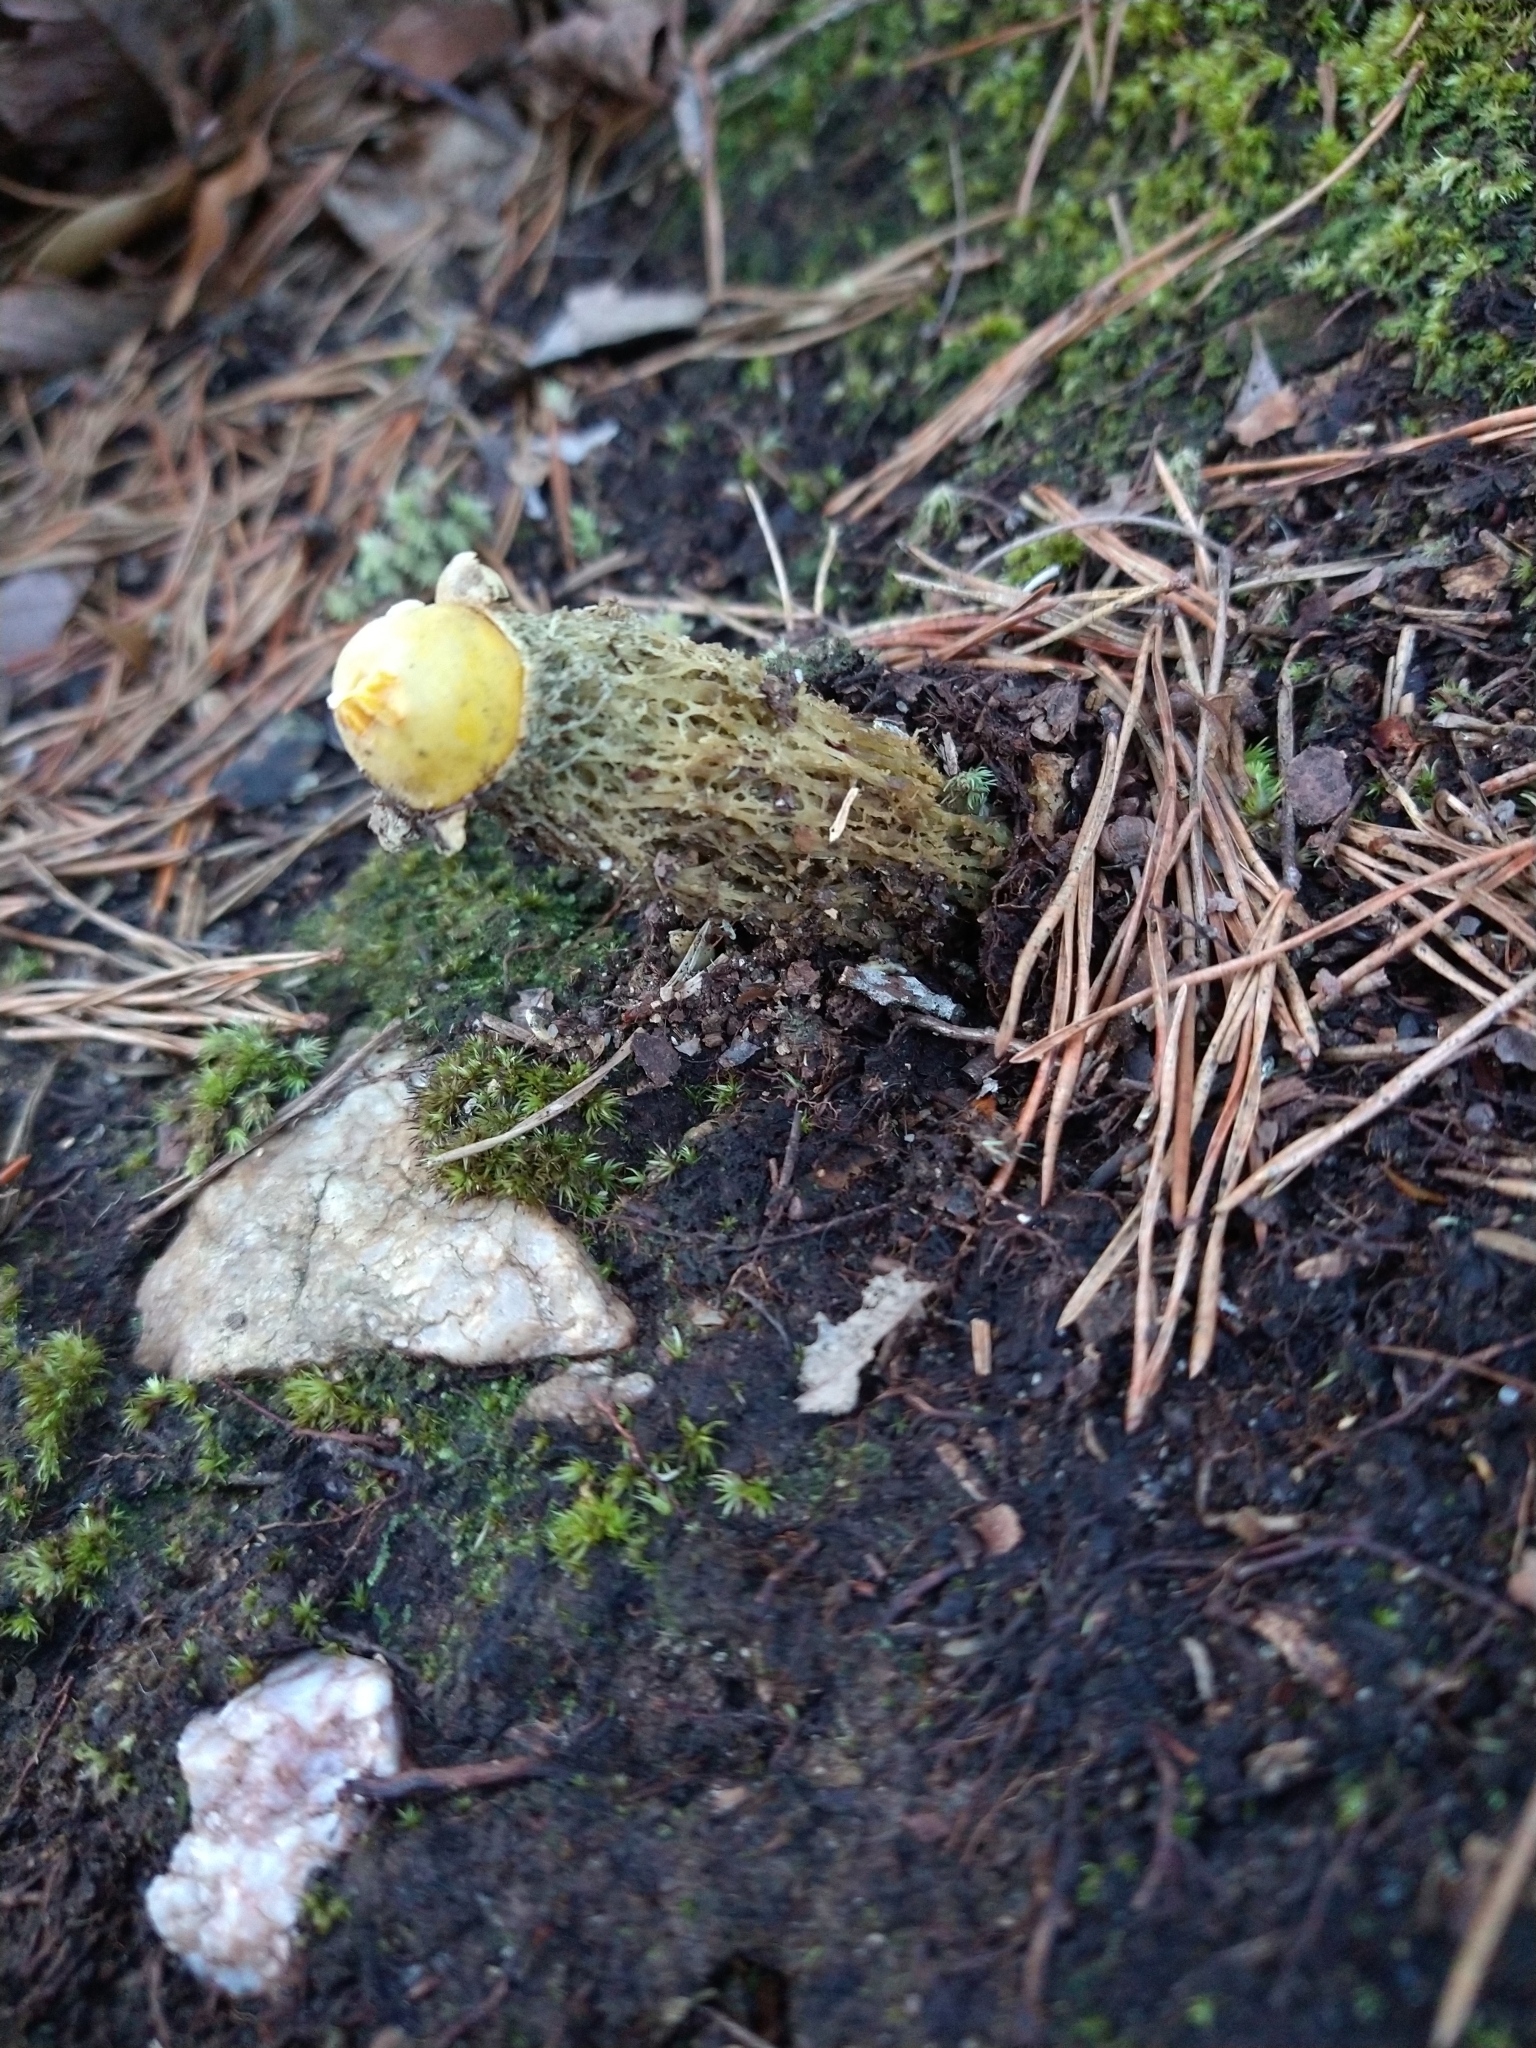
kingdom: Fungi
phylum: Basidiomycota
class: Agaricomycetes
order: Boletales
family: Calostomataceae
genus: Calostoma
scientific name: Calostoma lutescens
